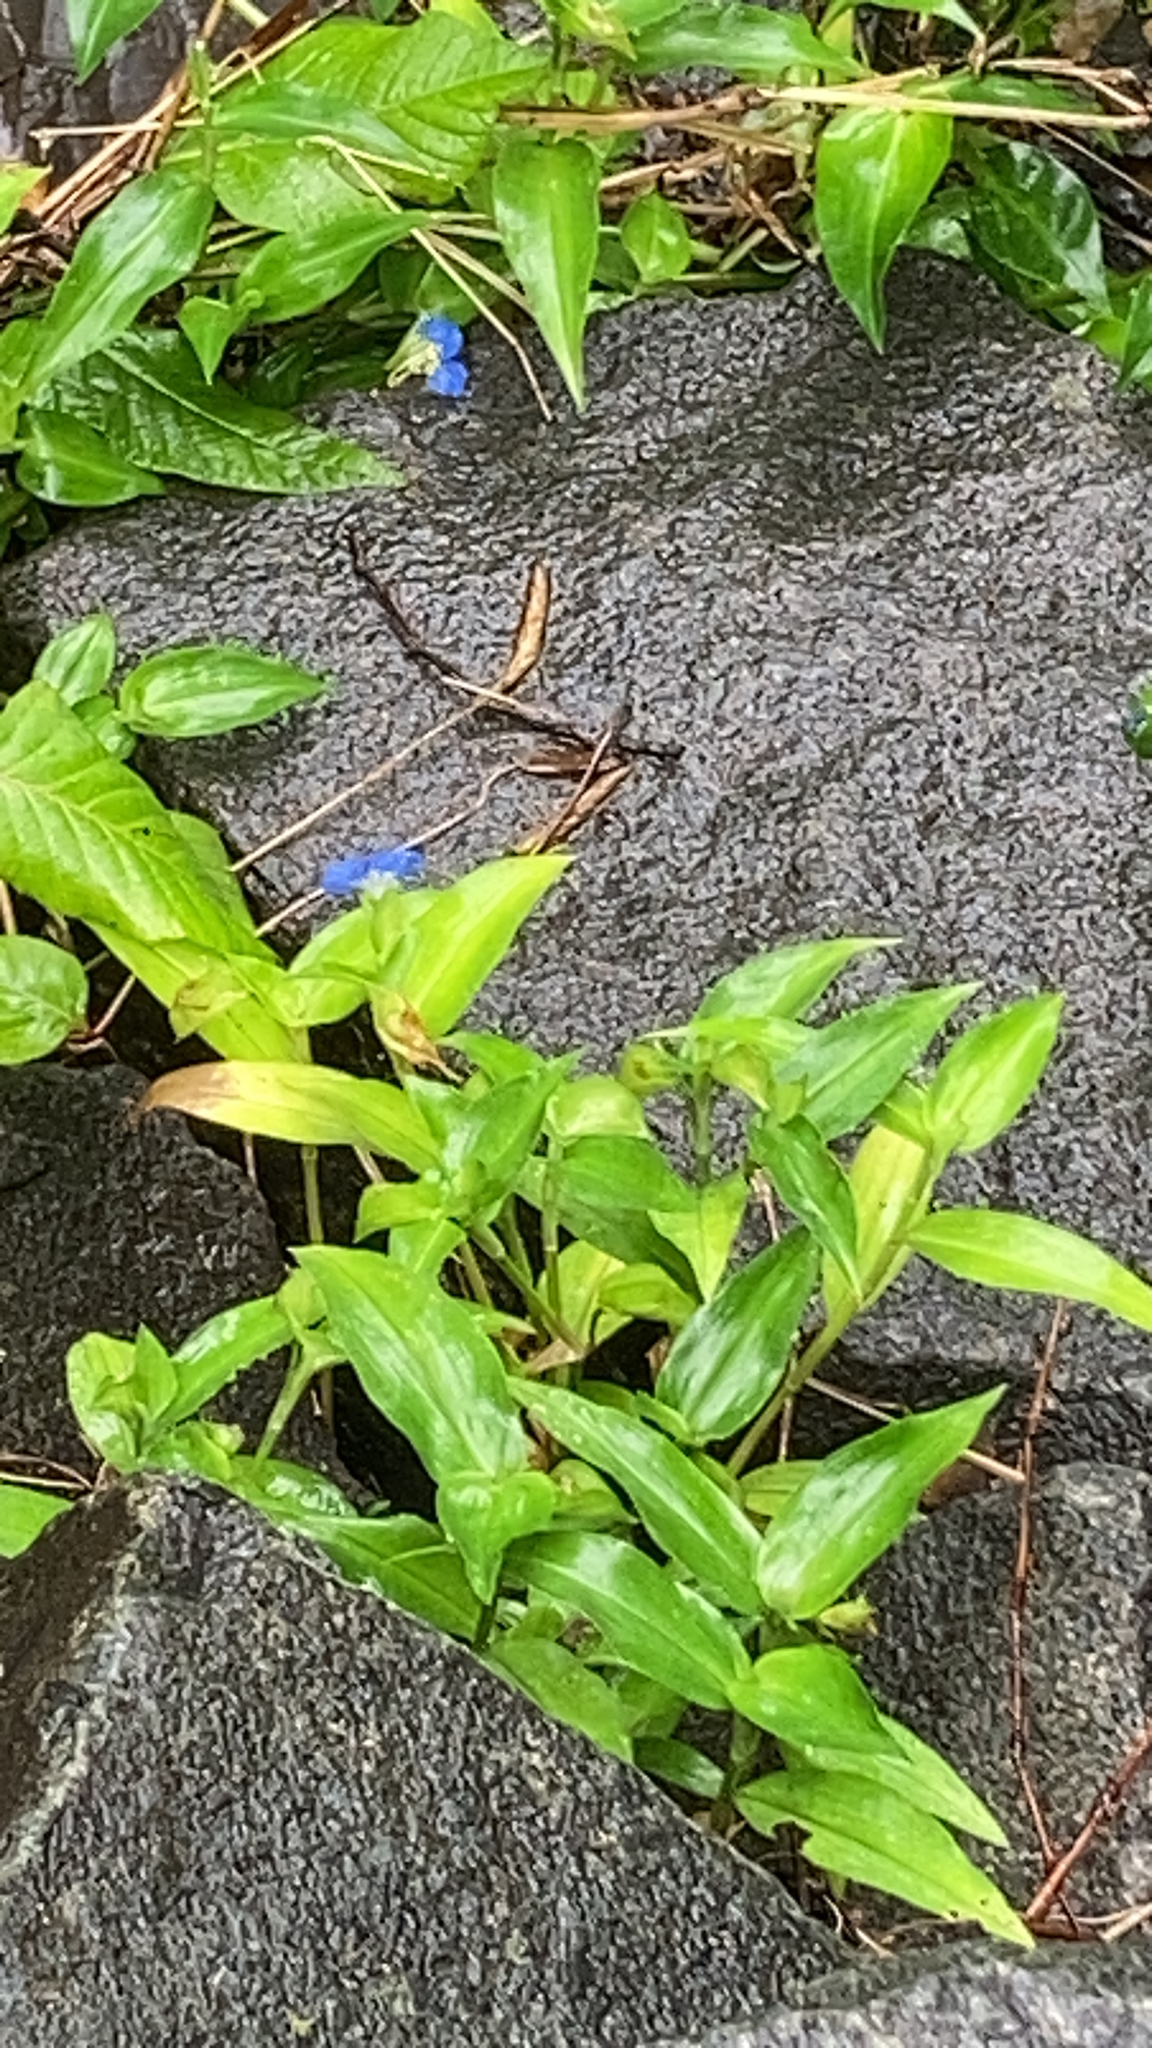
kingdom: Plantae
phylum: Tracheophyta
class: Liliopsida
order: Commelinales
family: Commelinaceae
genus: Commelina
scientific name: Commelina communis
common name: Asiatic dayflower
